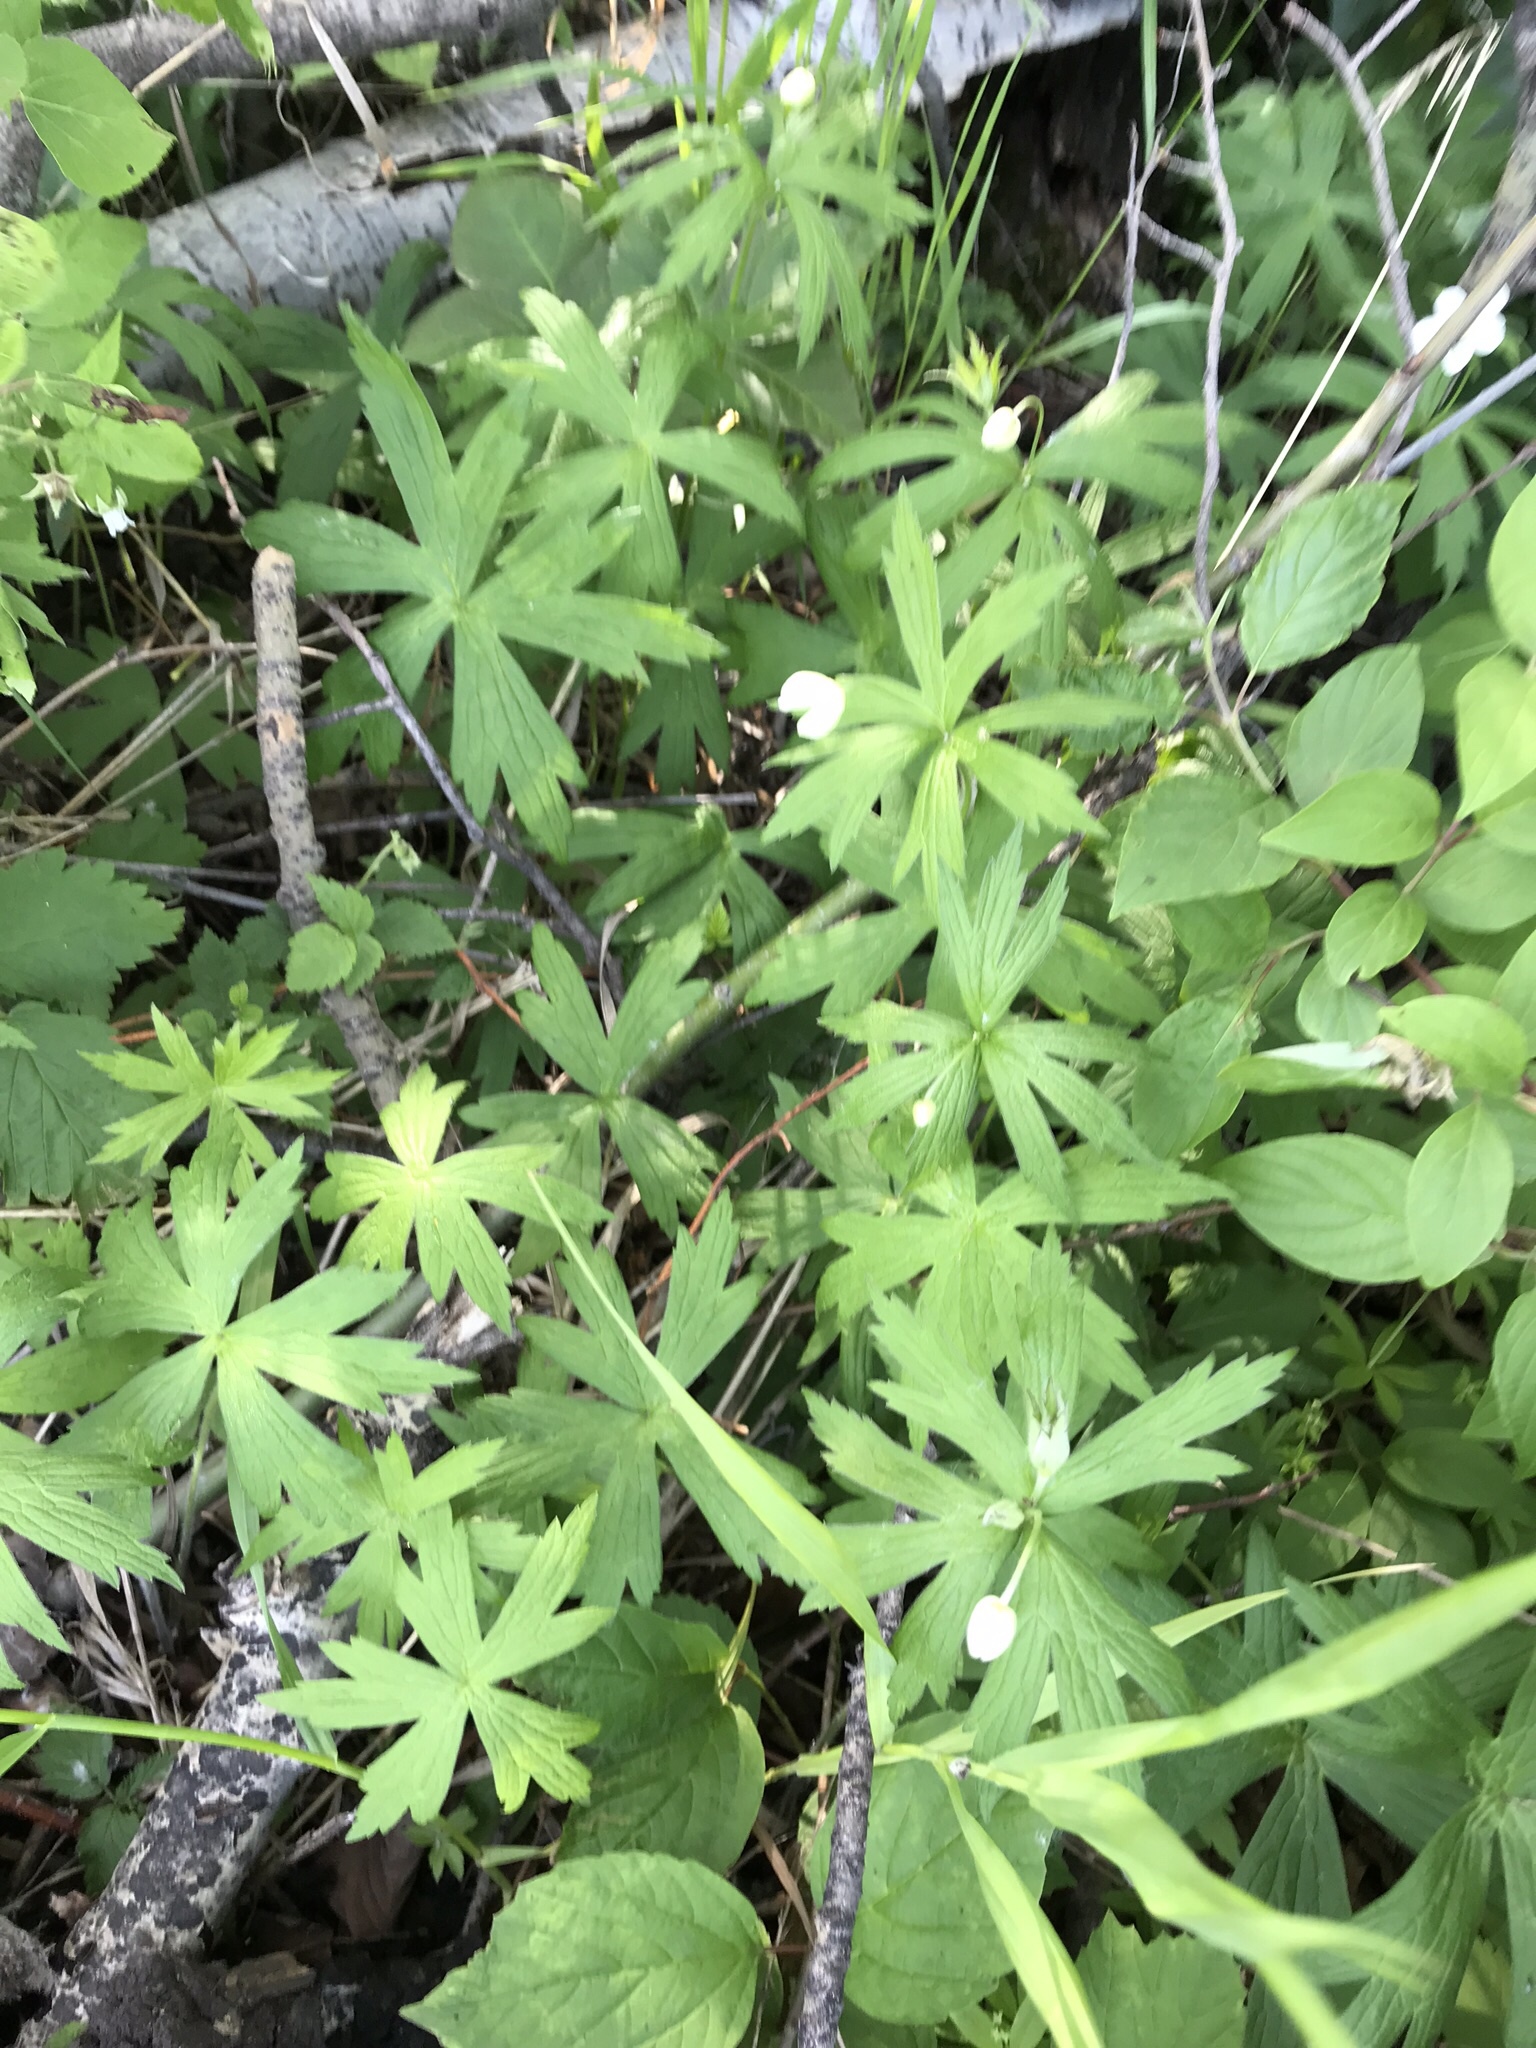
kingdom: Plantae
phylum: Tracheophyta
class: Magnoliopsida
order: Ranunculales
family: Ranunculaceae
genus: Anemonastrum
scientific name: Anemonastrum canadense
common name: Canada anemone
